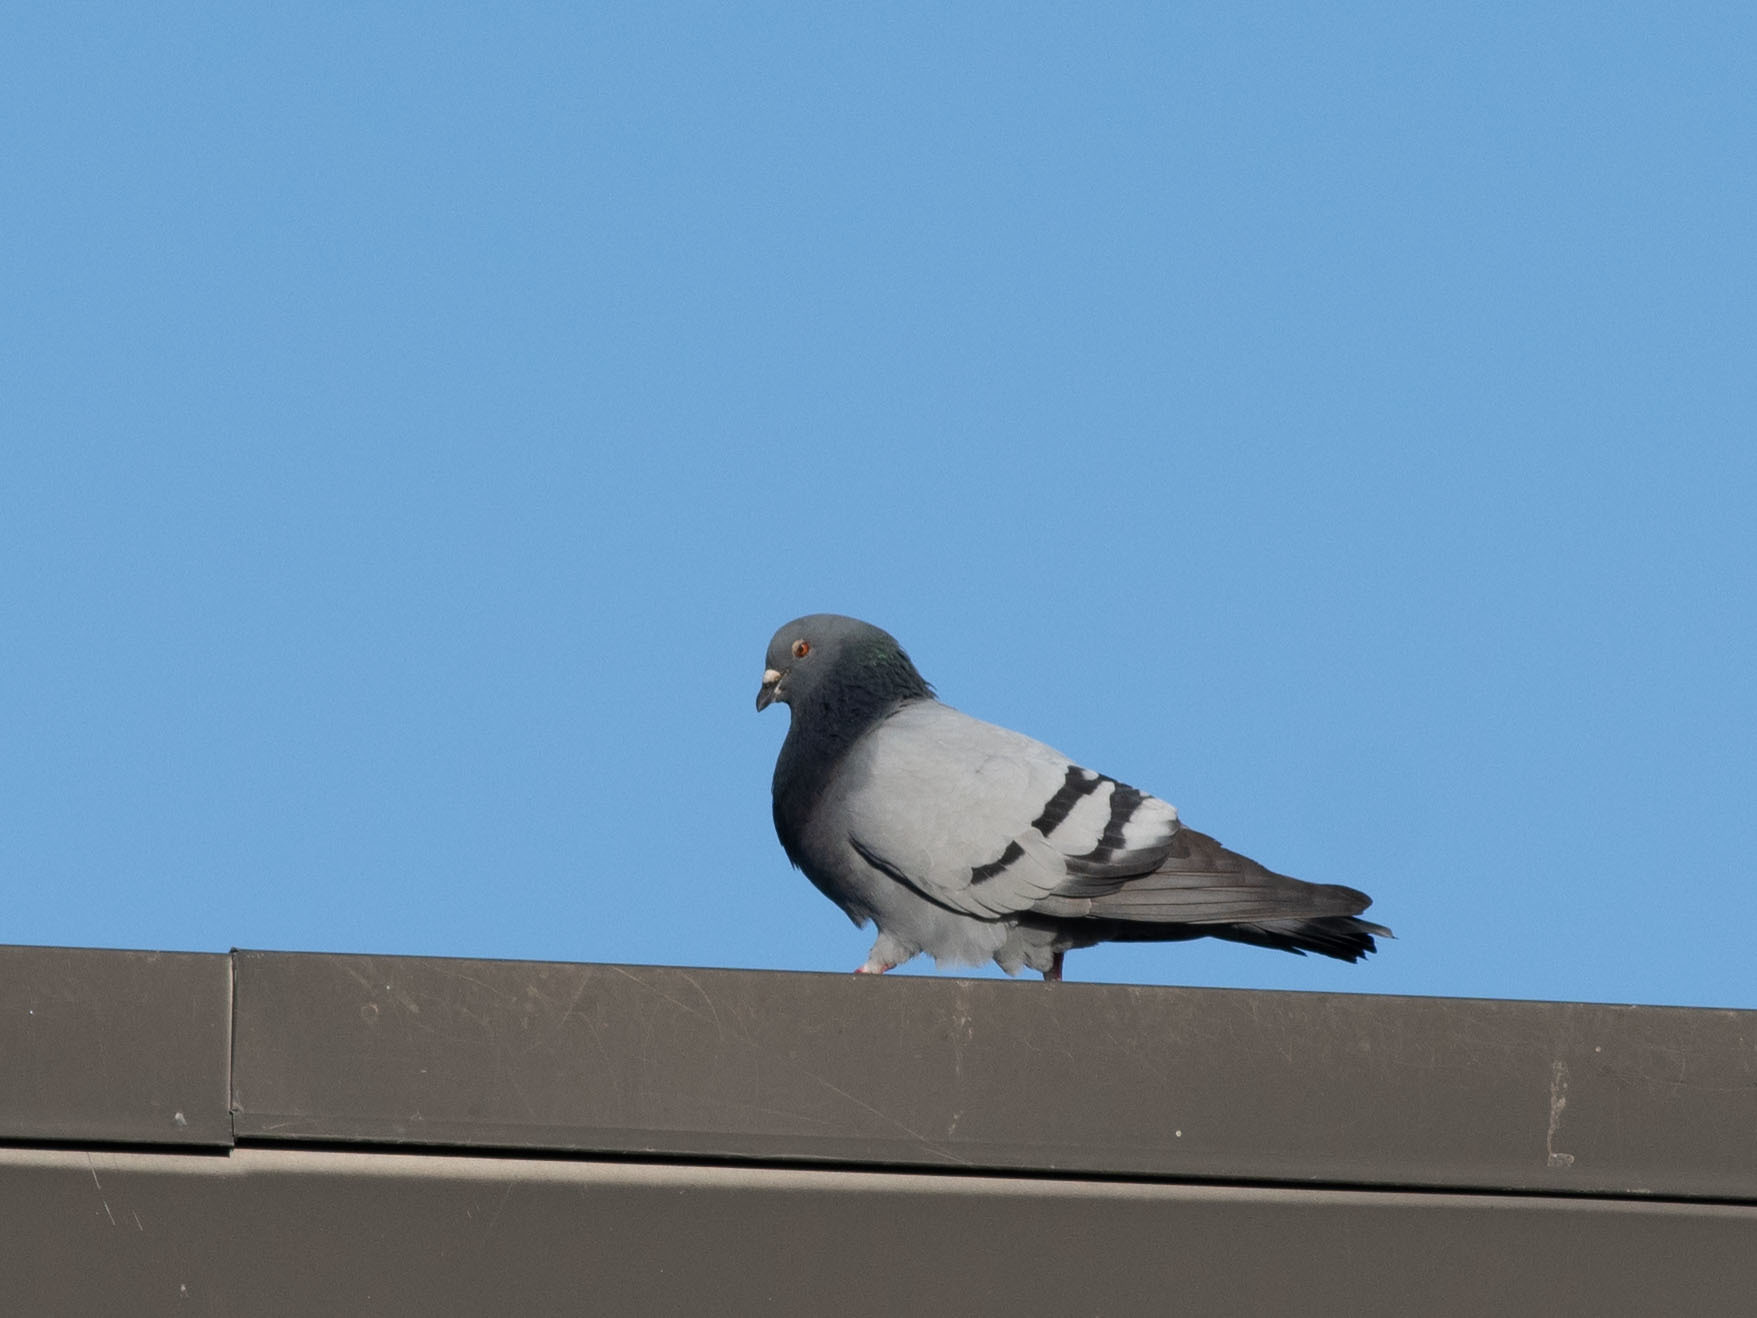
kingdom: Animalia
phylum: Chordata
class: Aves
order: Columbiformes
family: Columbidae
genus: Columba
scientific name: Columba livia
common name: Rock pigeon
